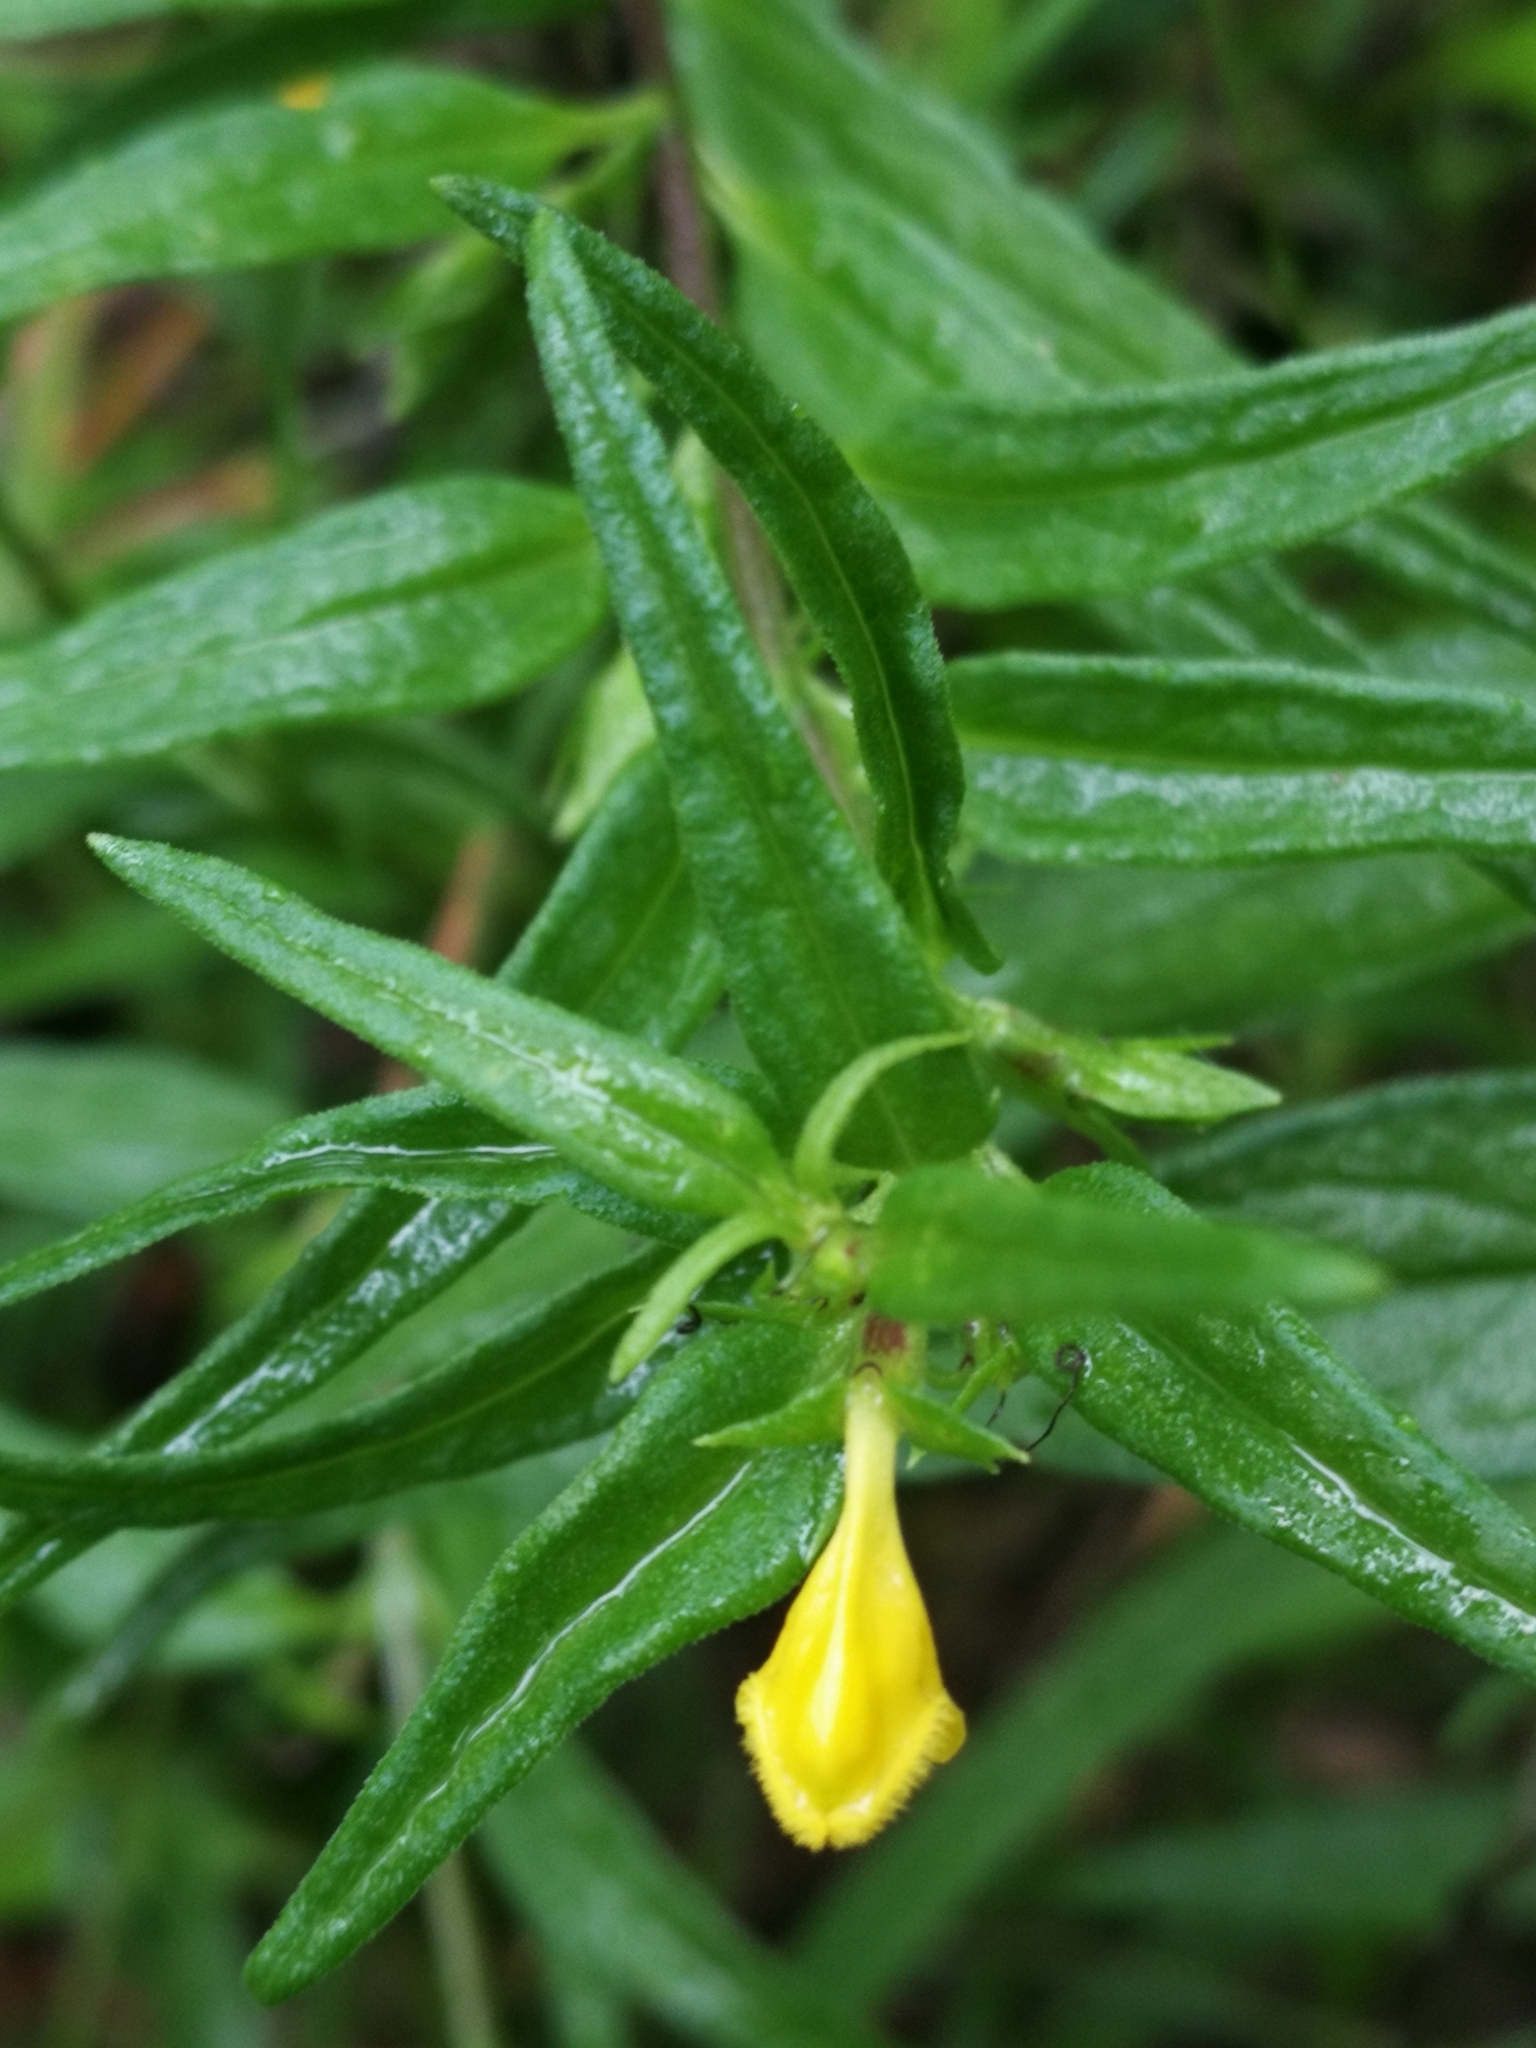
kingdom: Plantae
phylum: Tracheophyta
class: Magnoliopsida
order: Lamiales
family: Orobanchaceae
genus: Melampyrum
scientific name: Melampyrum sylvaticum
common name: Small cow-wheat
